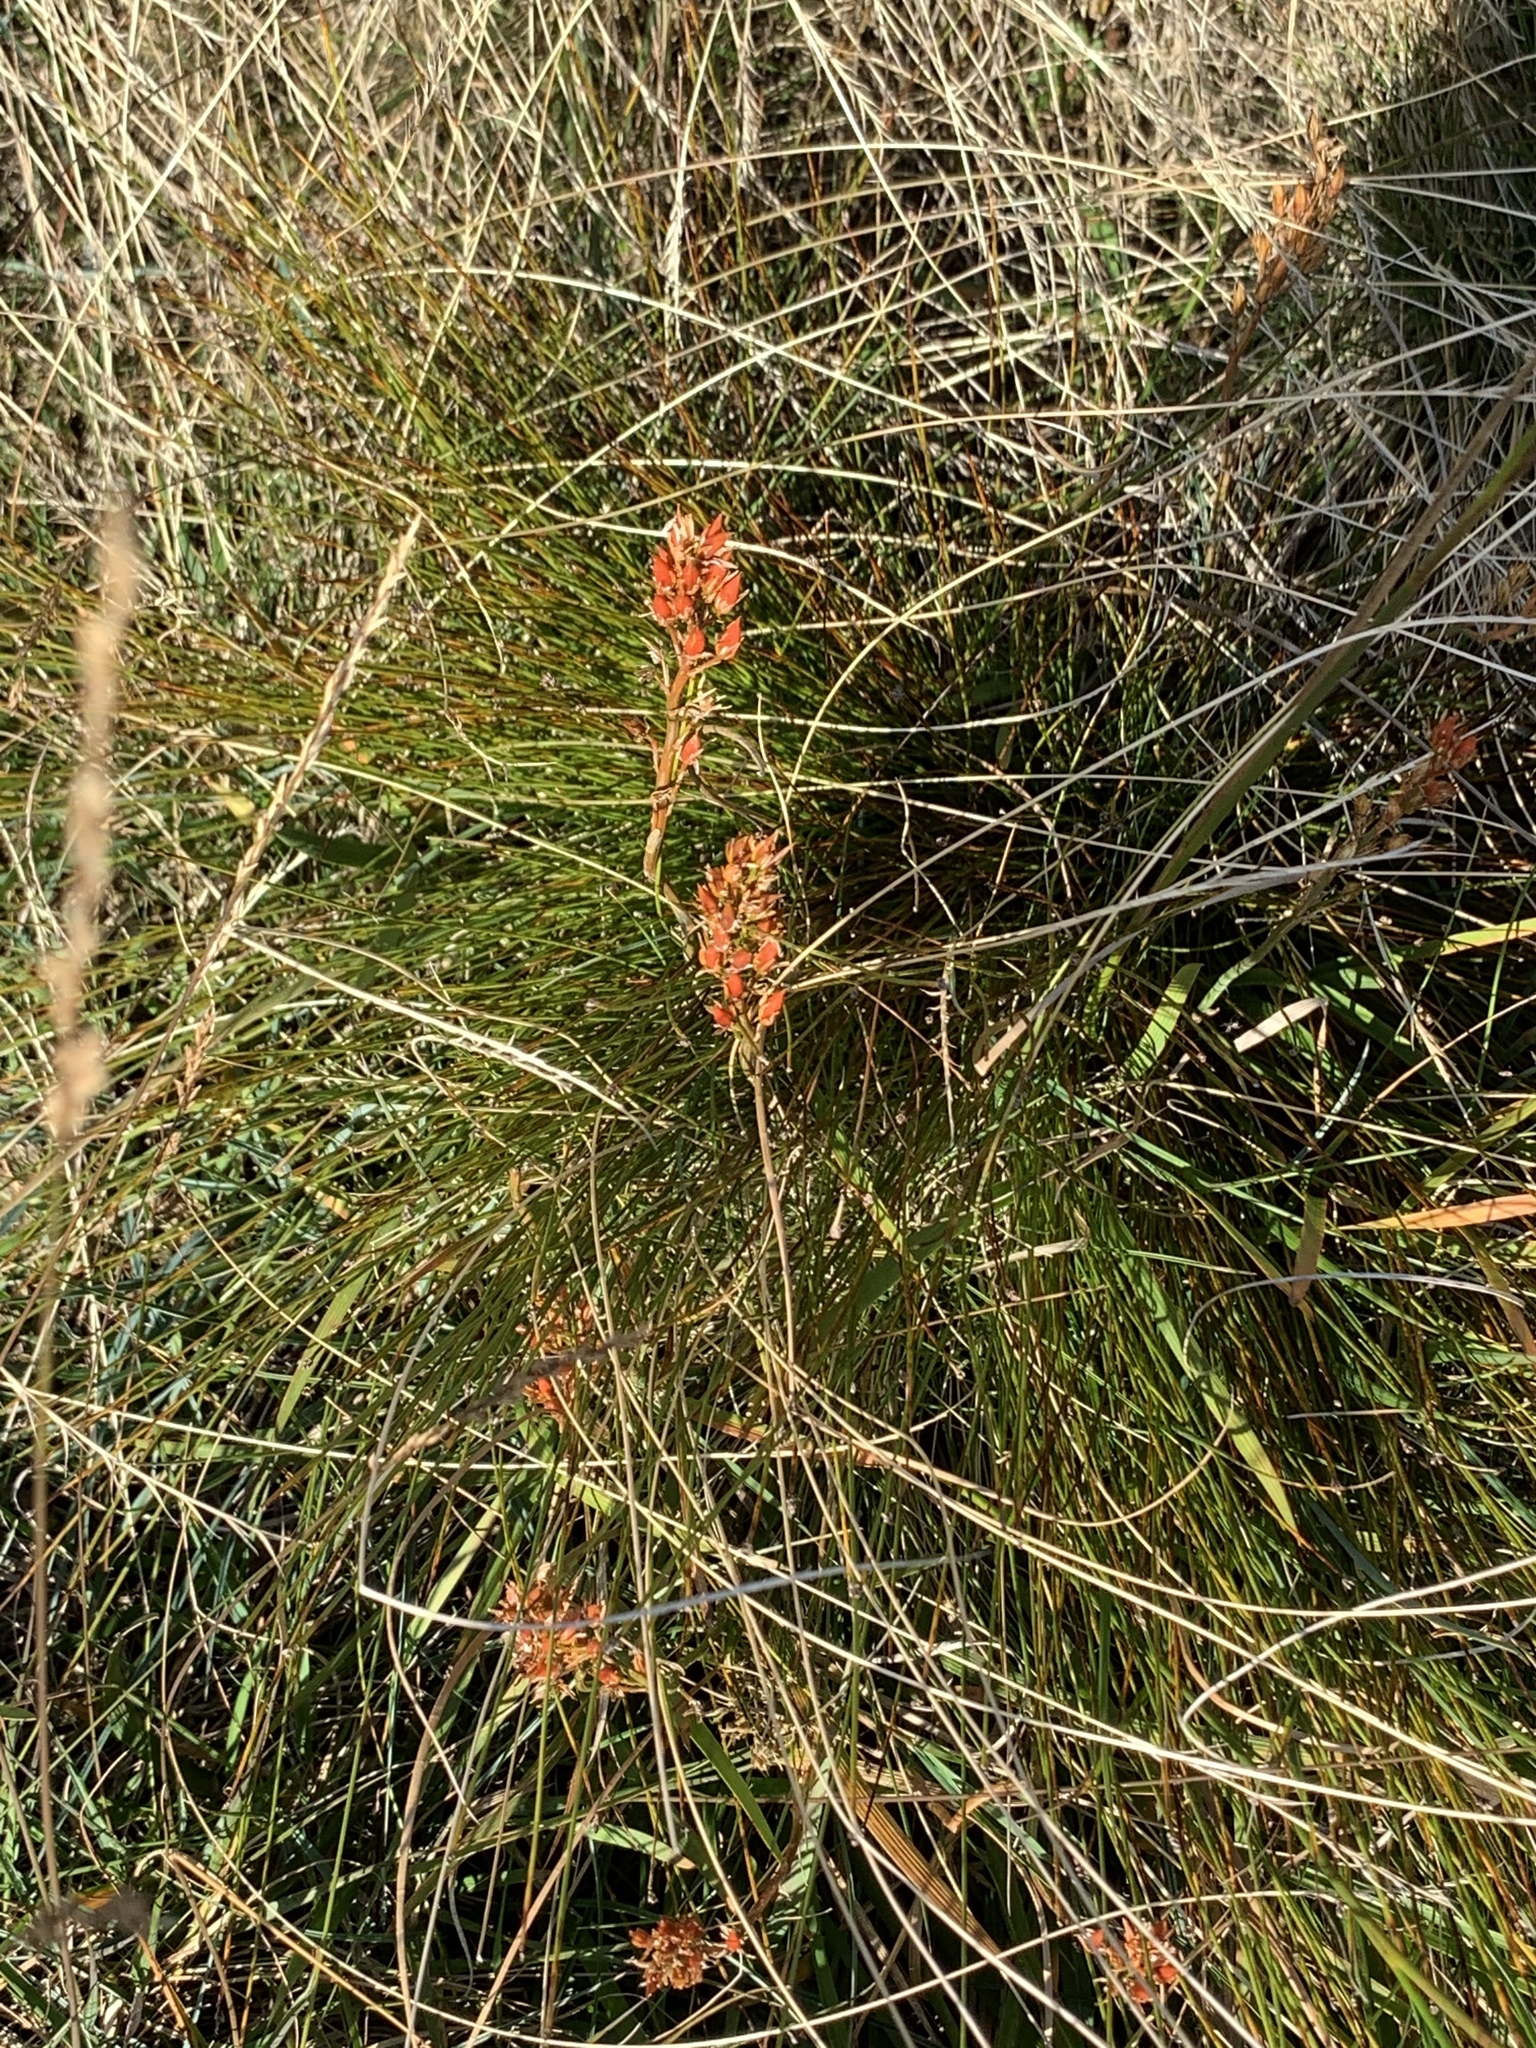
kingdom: Plantae
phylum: Tracheophyta
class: Liliopsida
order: Dioscoreales
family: Nartheciaceae
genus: Narthecium
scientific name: Narthecium ossifragum
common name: Bog asphodel
